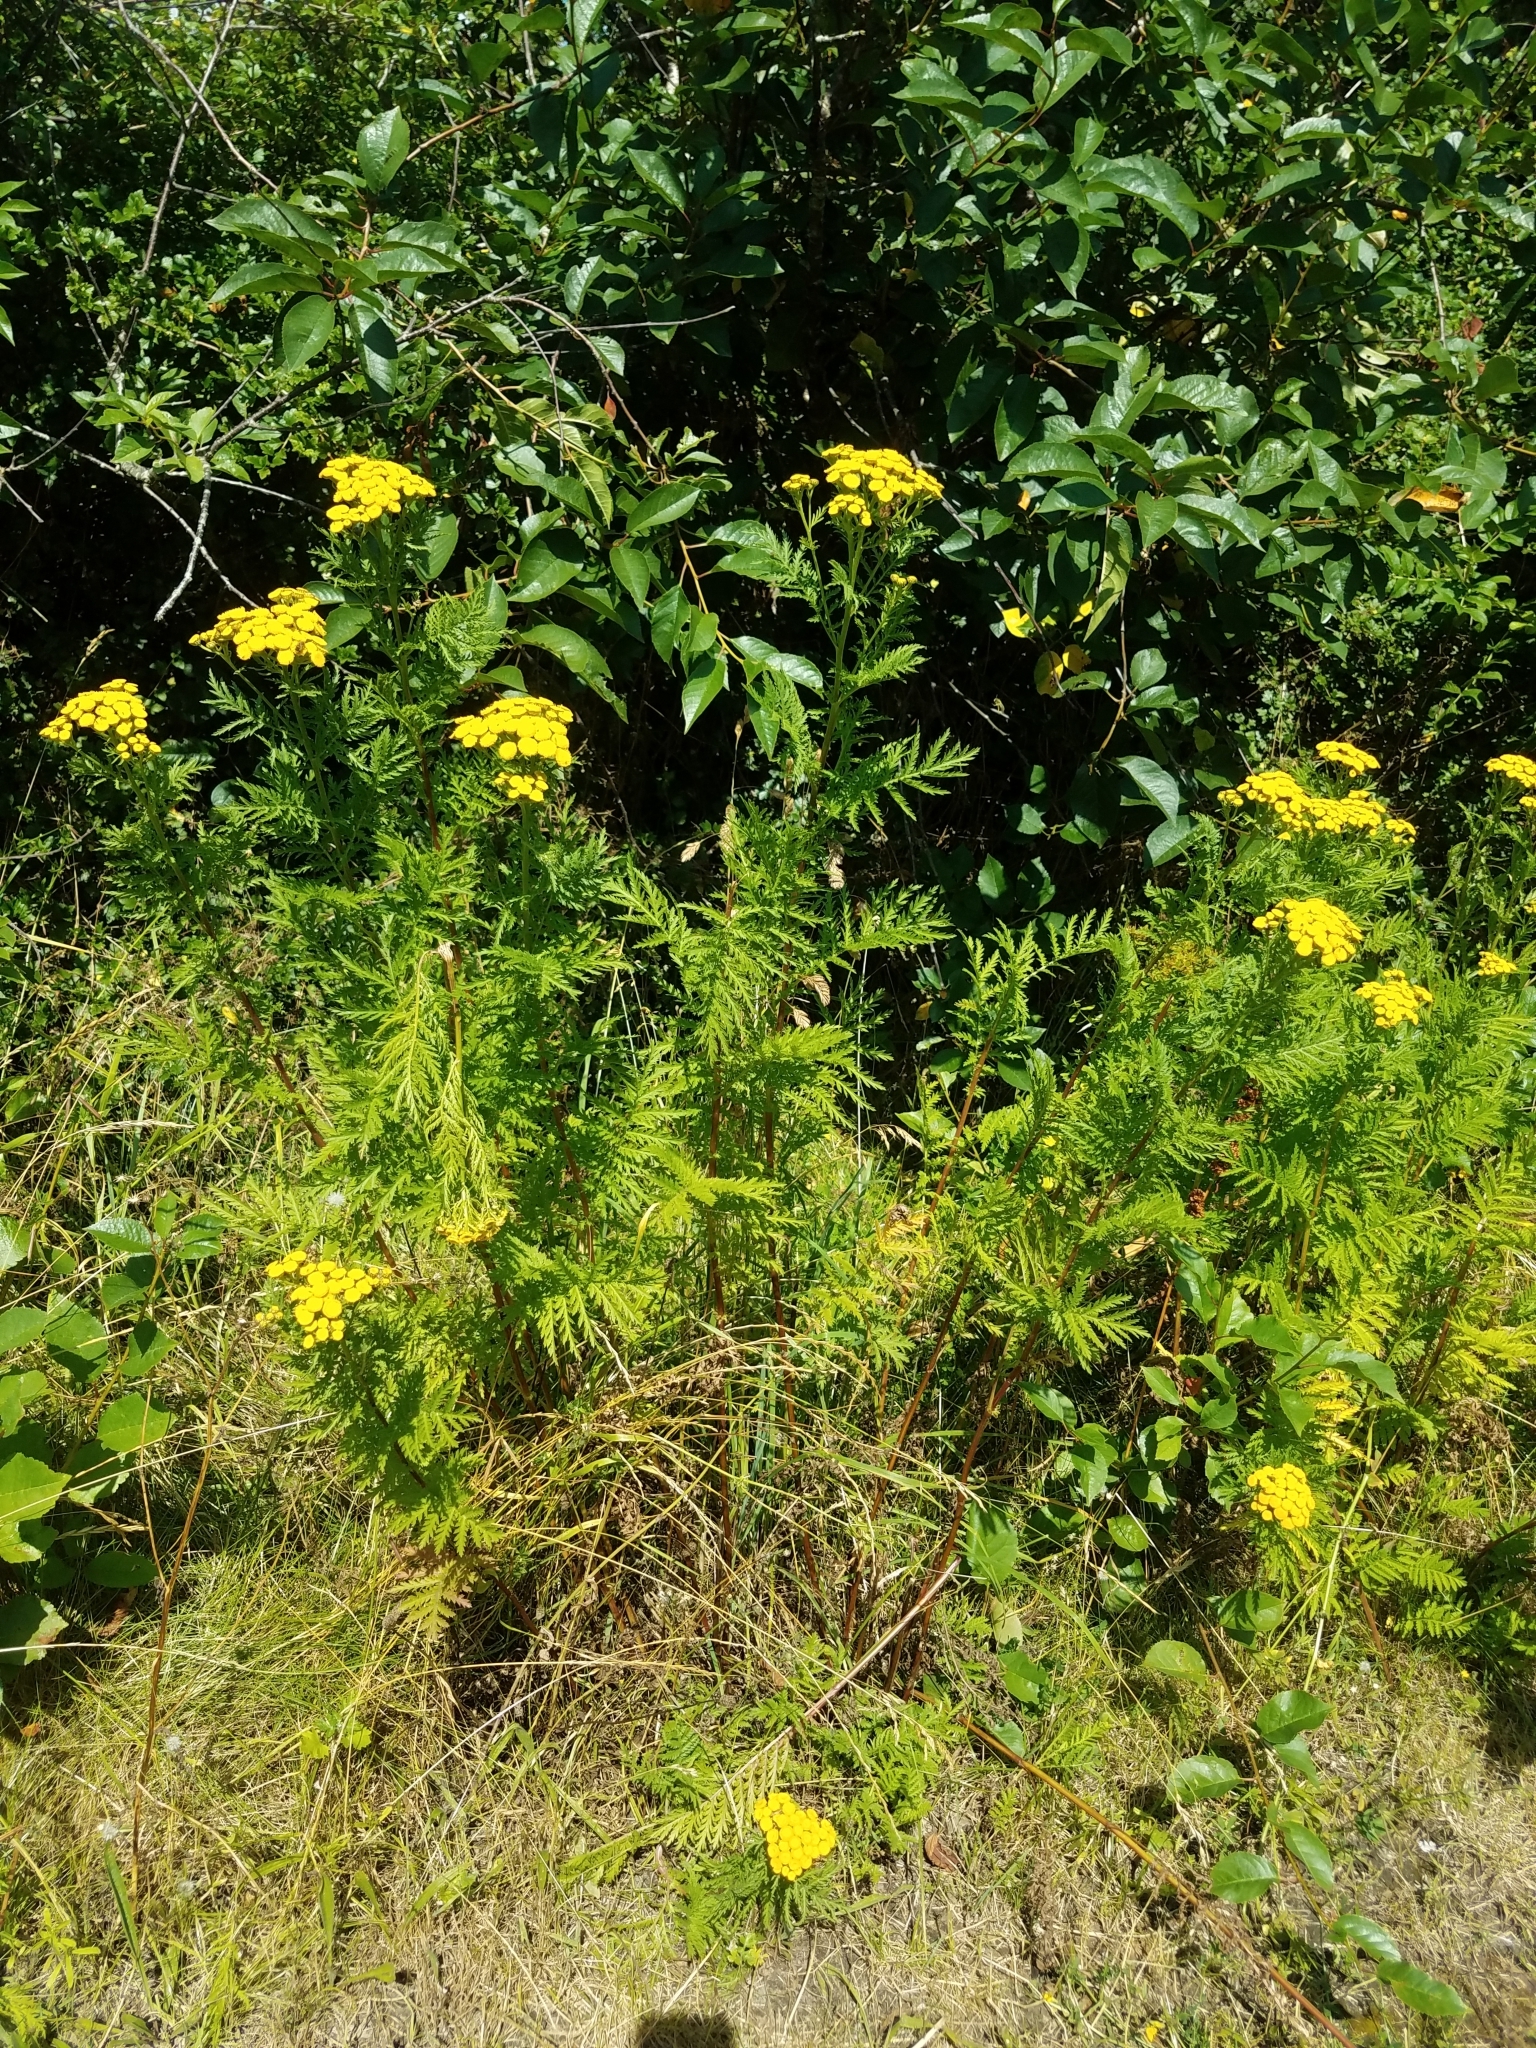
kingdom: Plantae
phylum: Tracheophyta
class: Magnoliopsida
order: Asterales
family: Asteraceae
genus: Tanacetum
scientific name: Tanacetum vulgare
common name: Common tansy
